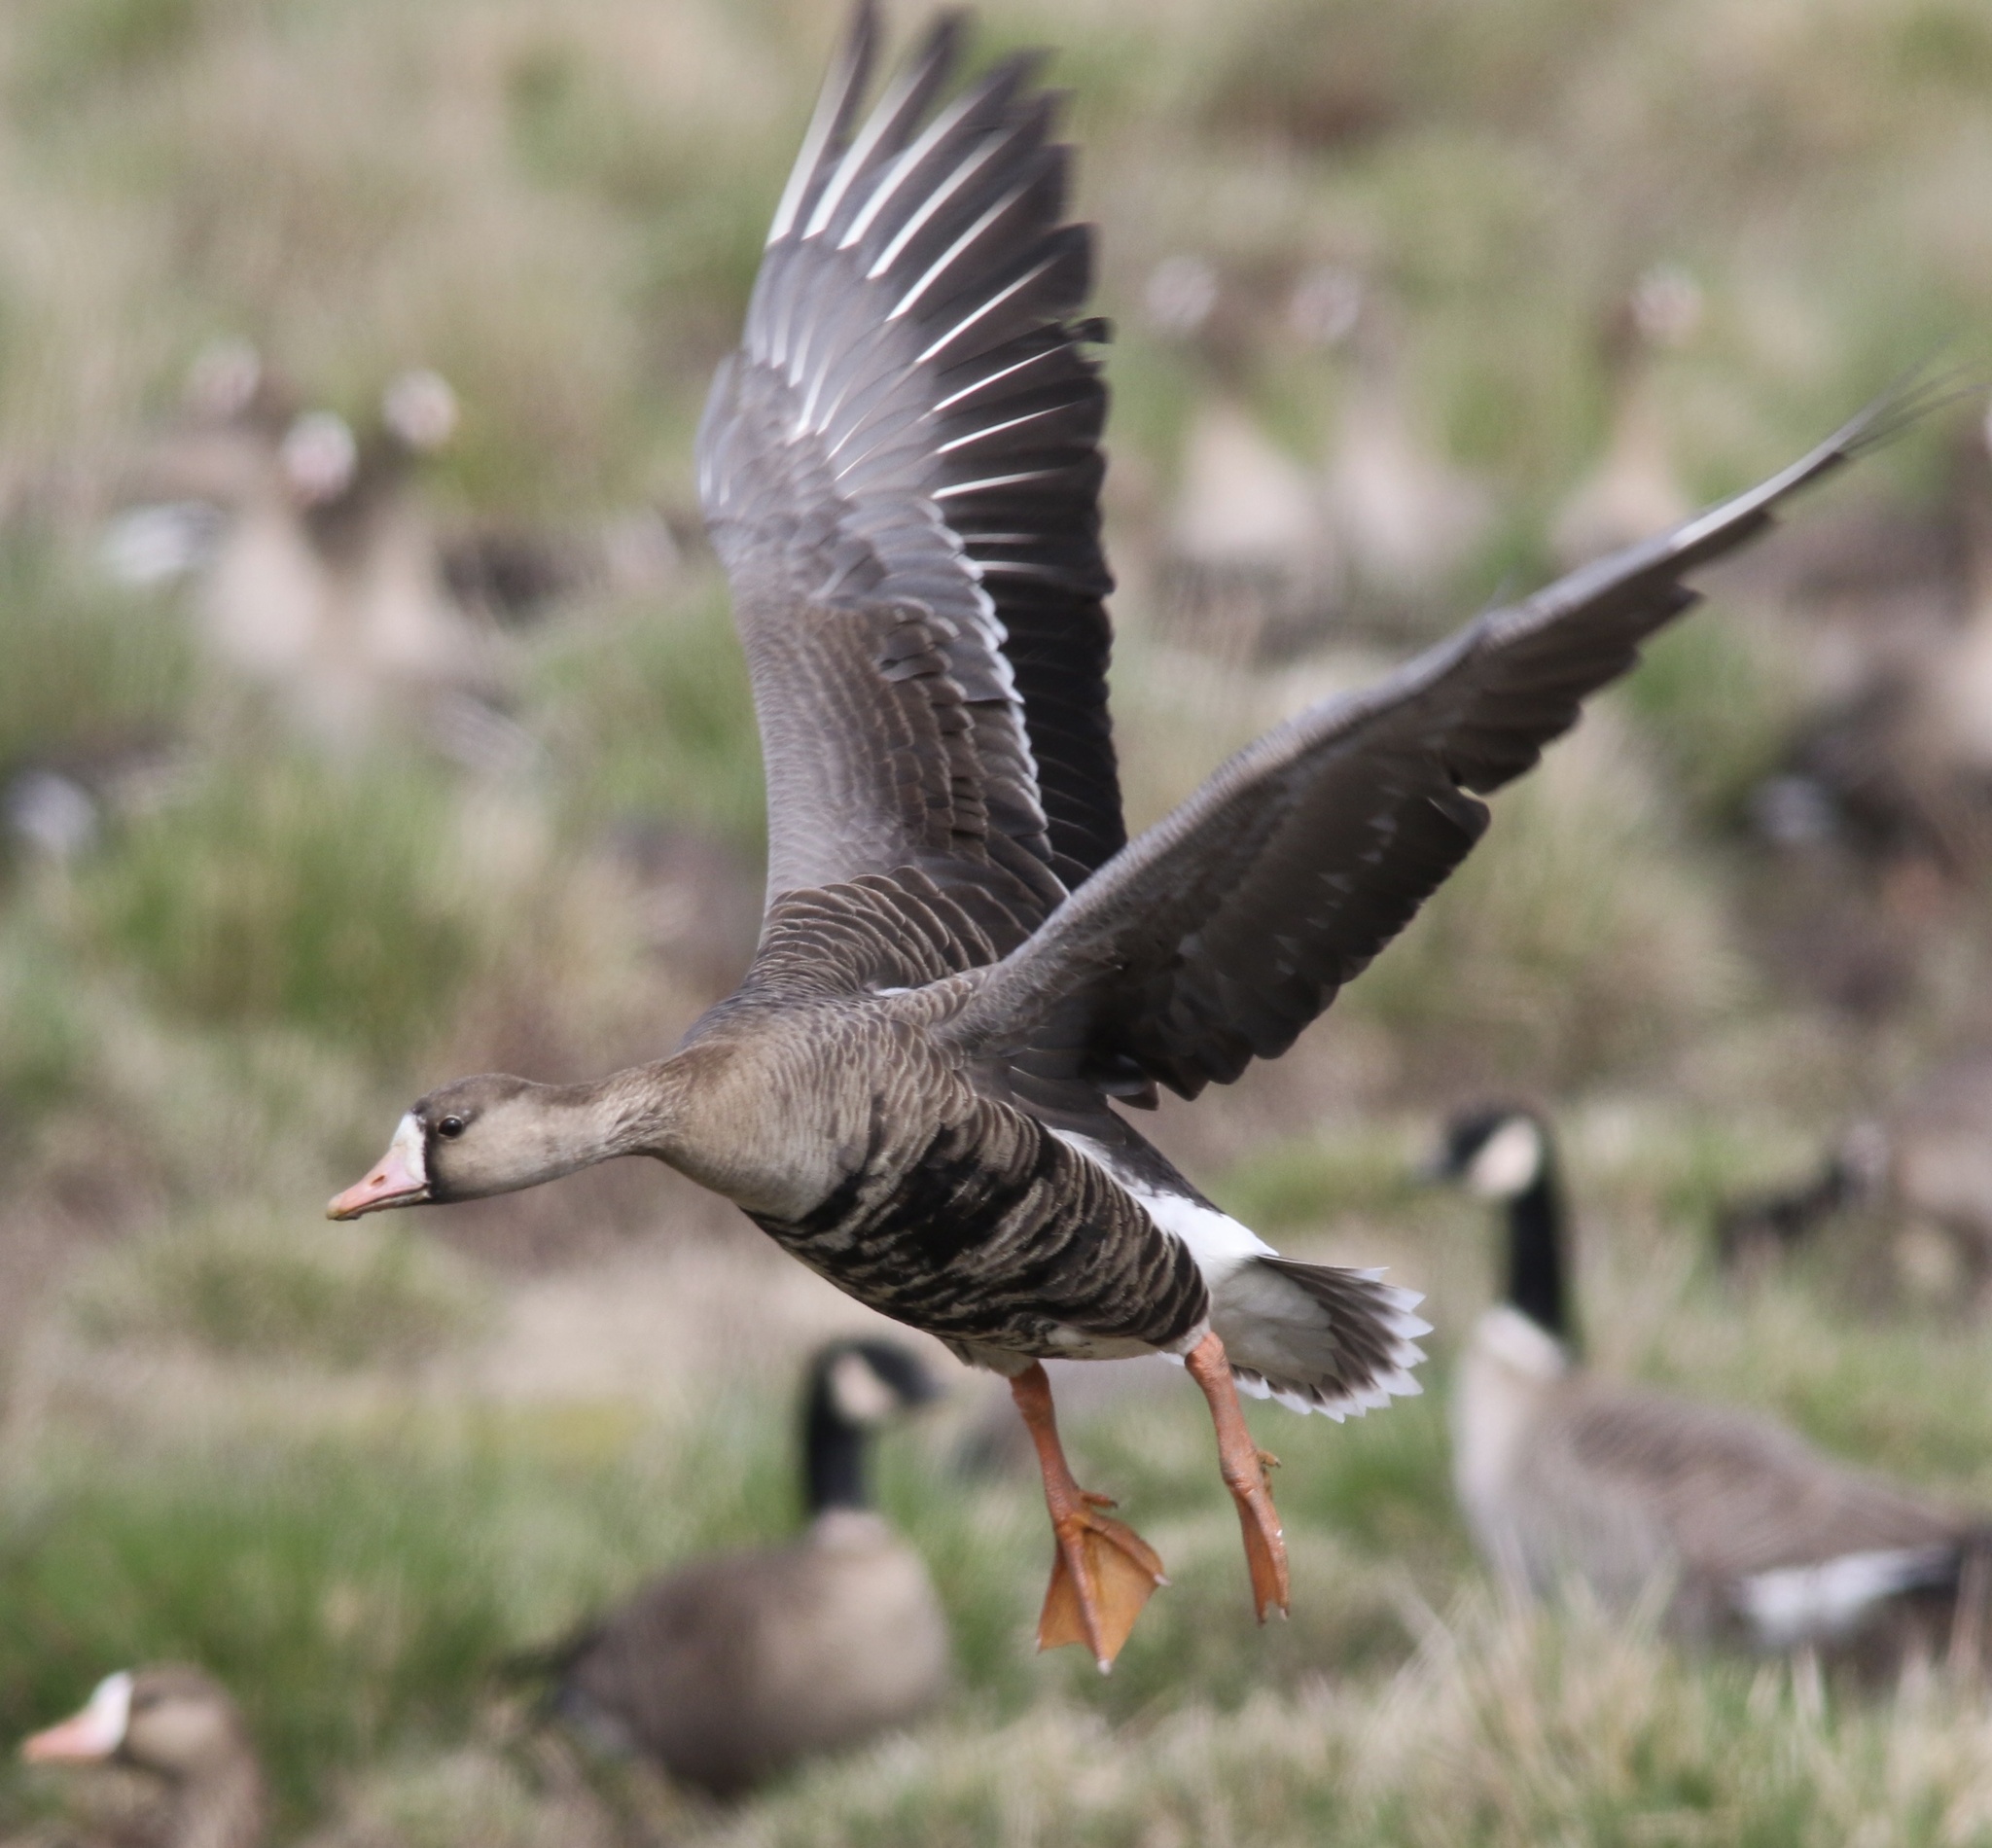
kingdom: Animalia
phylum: Chordata
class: Aves
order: Anseriformes
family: Anatidae
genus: Anser
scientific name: Anser albifrons
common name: Greater white-fronted goose
